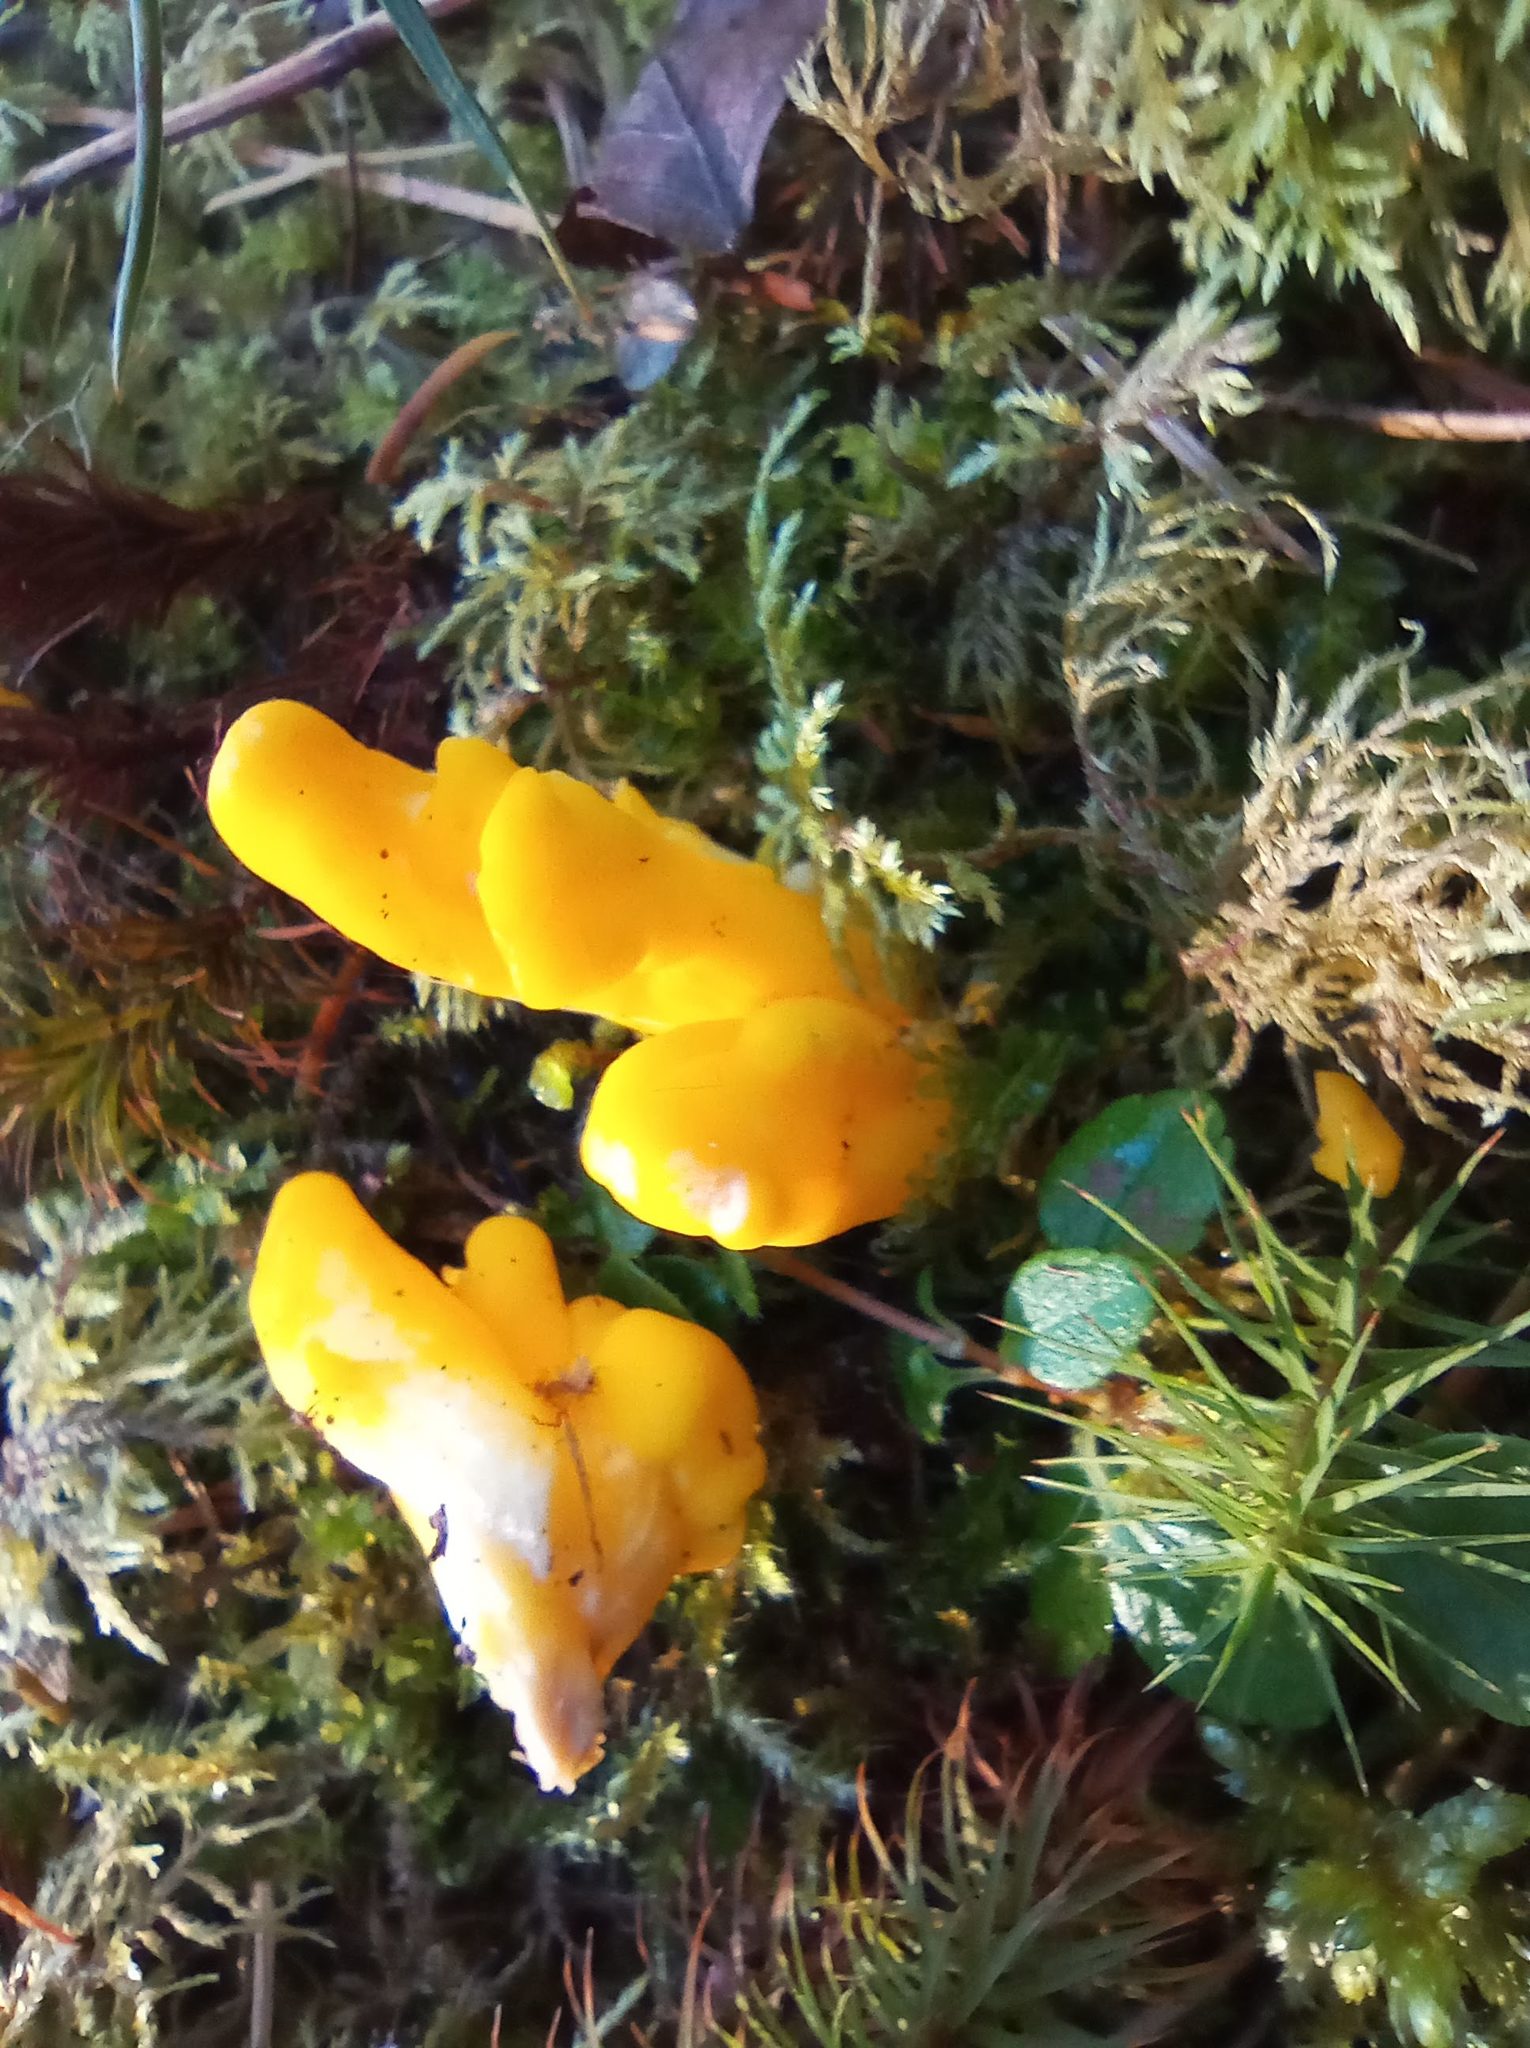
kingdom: Fungi
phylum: Ascomycota
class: Neolectomycetes
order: Neolectales
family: Neolectaceae
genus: Neolecta
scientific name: Neolecta vitellina
